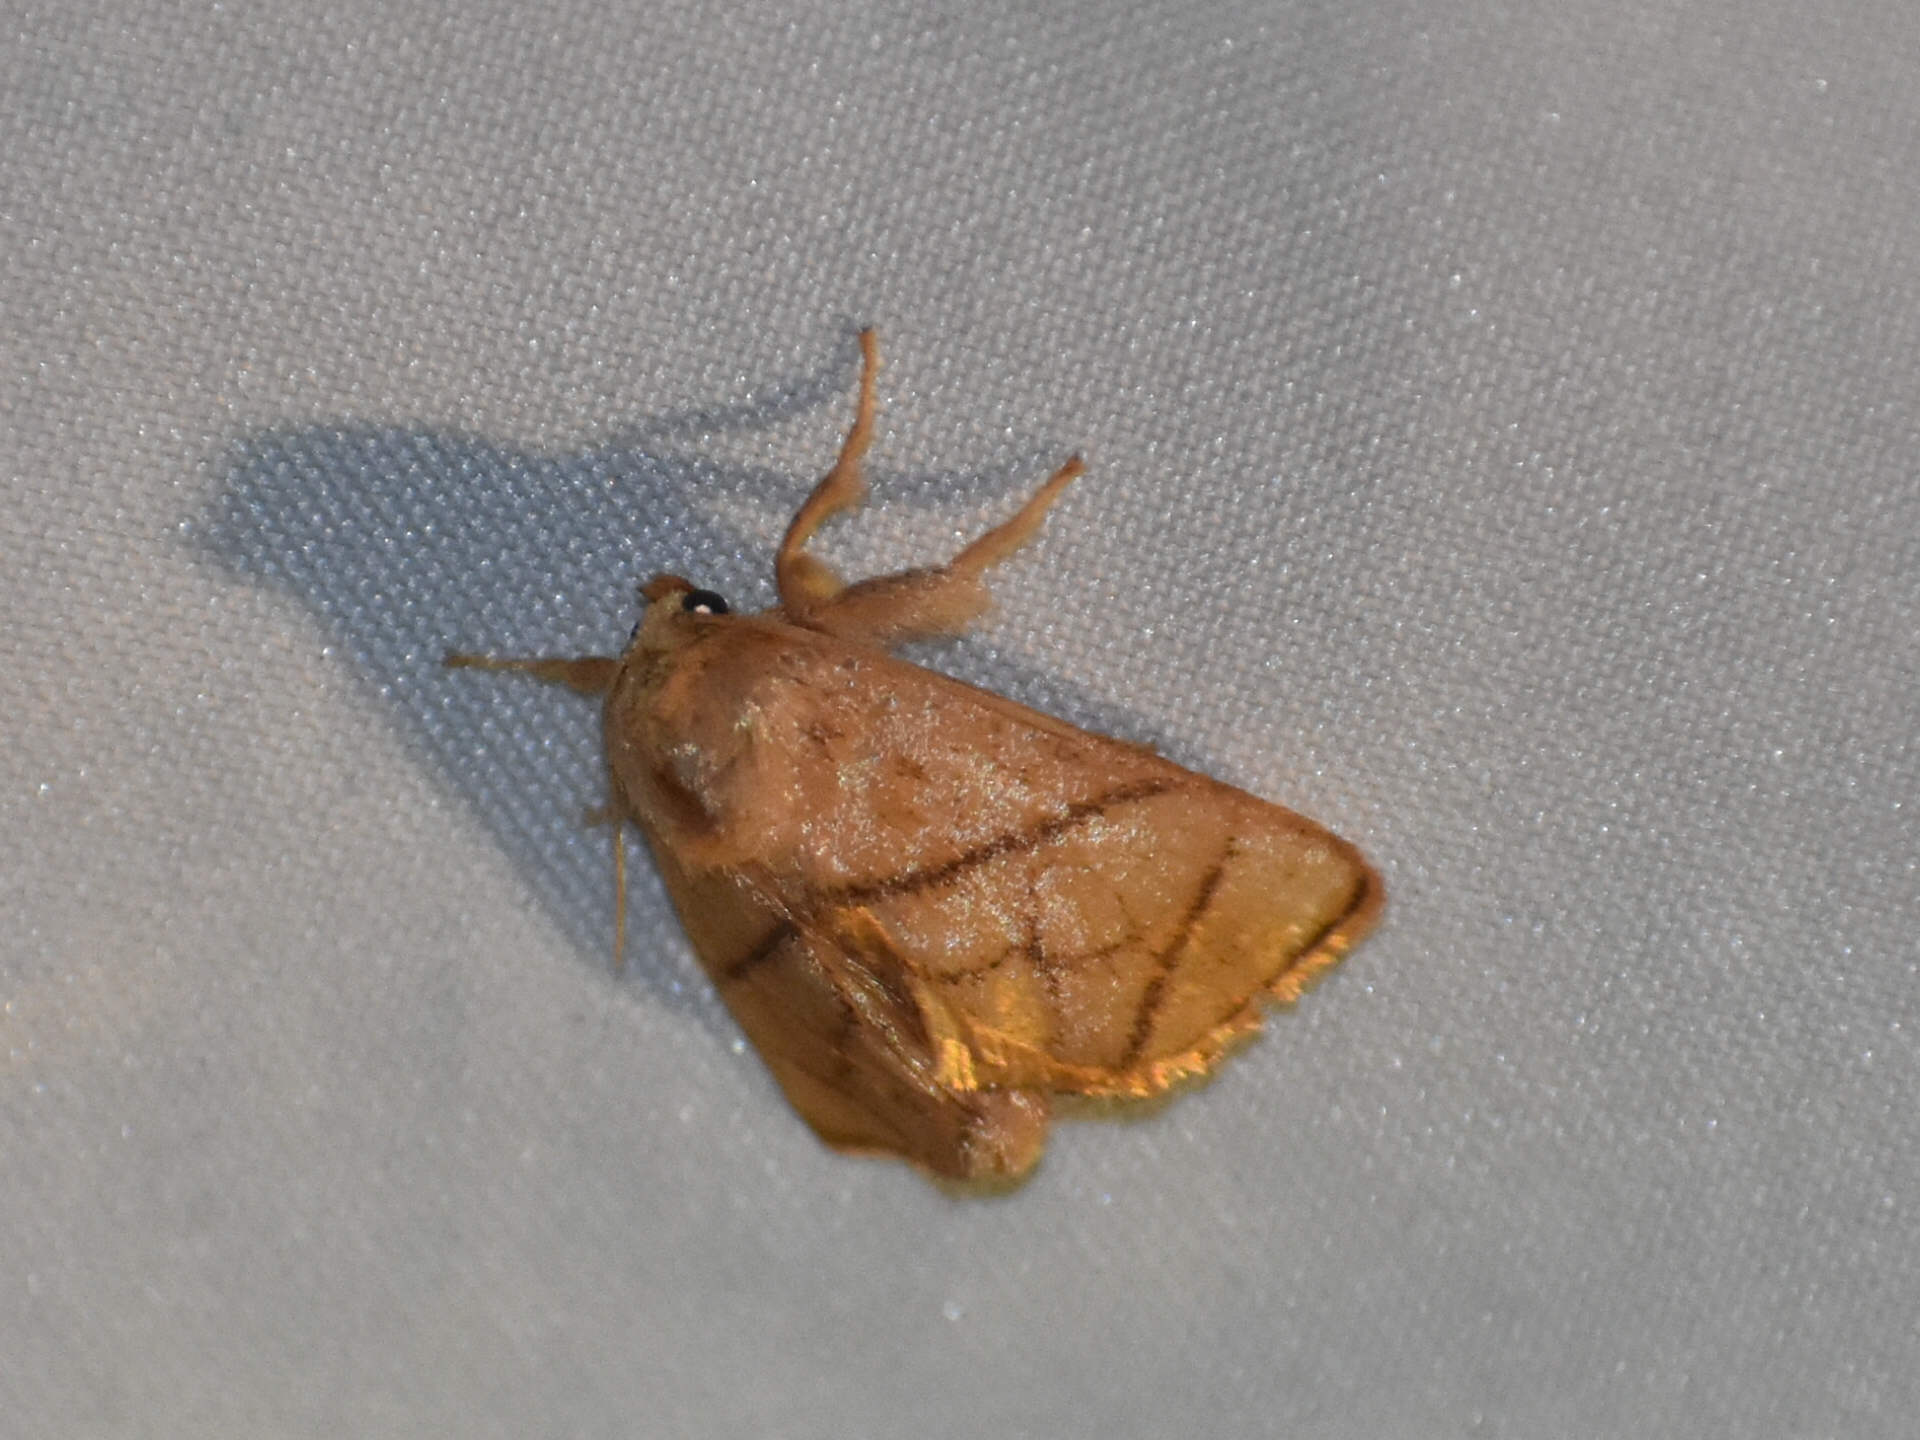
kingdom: Animalia
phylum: Arthropoda
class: Insecta
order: Lepidoptera
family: Limacodidae
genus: Apoda
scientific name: Apoda y-inversa
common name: Yellow-collared slug moth
